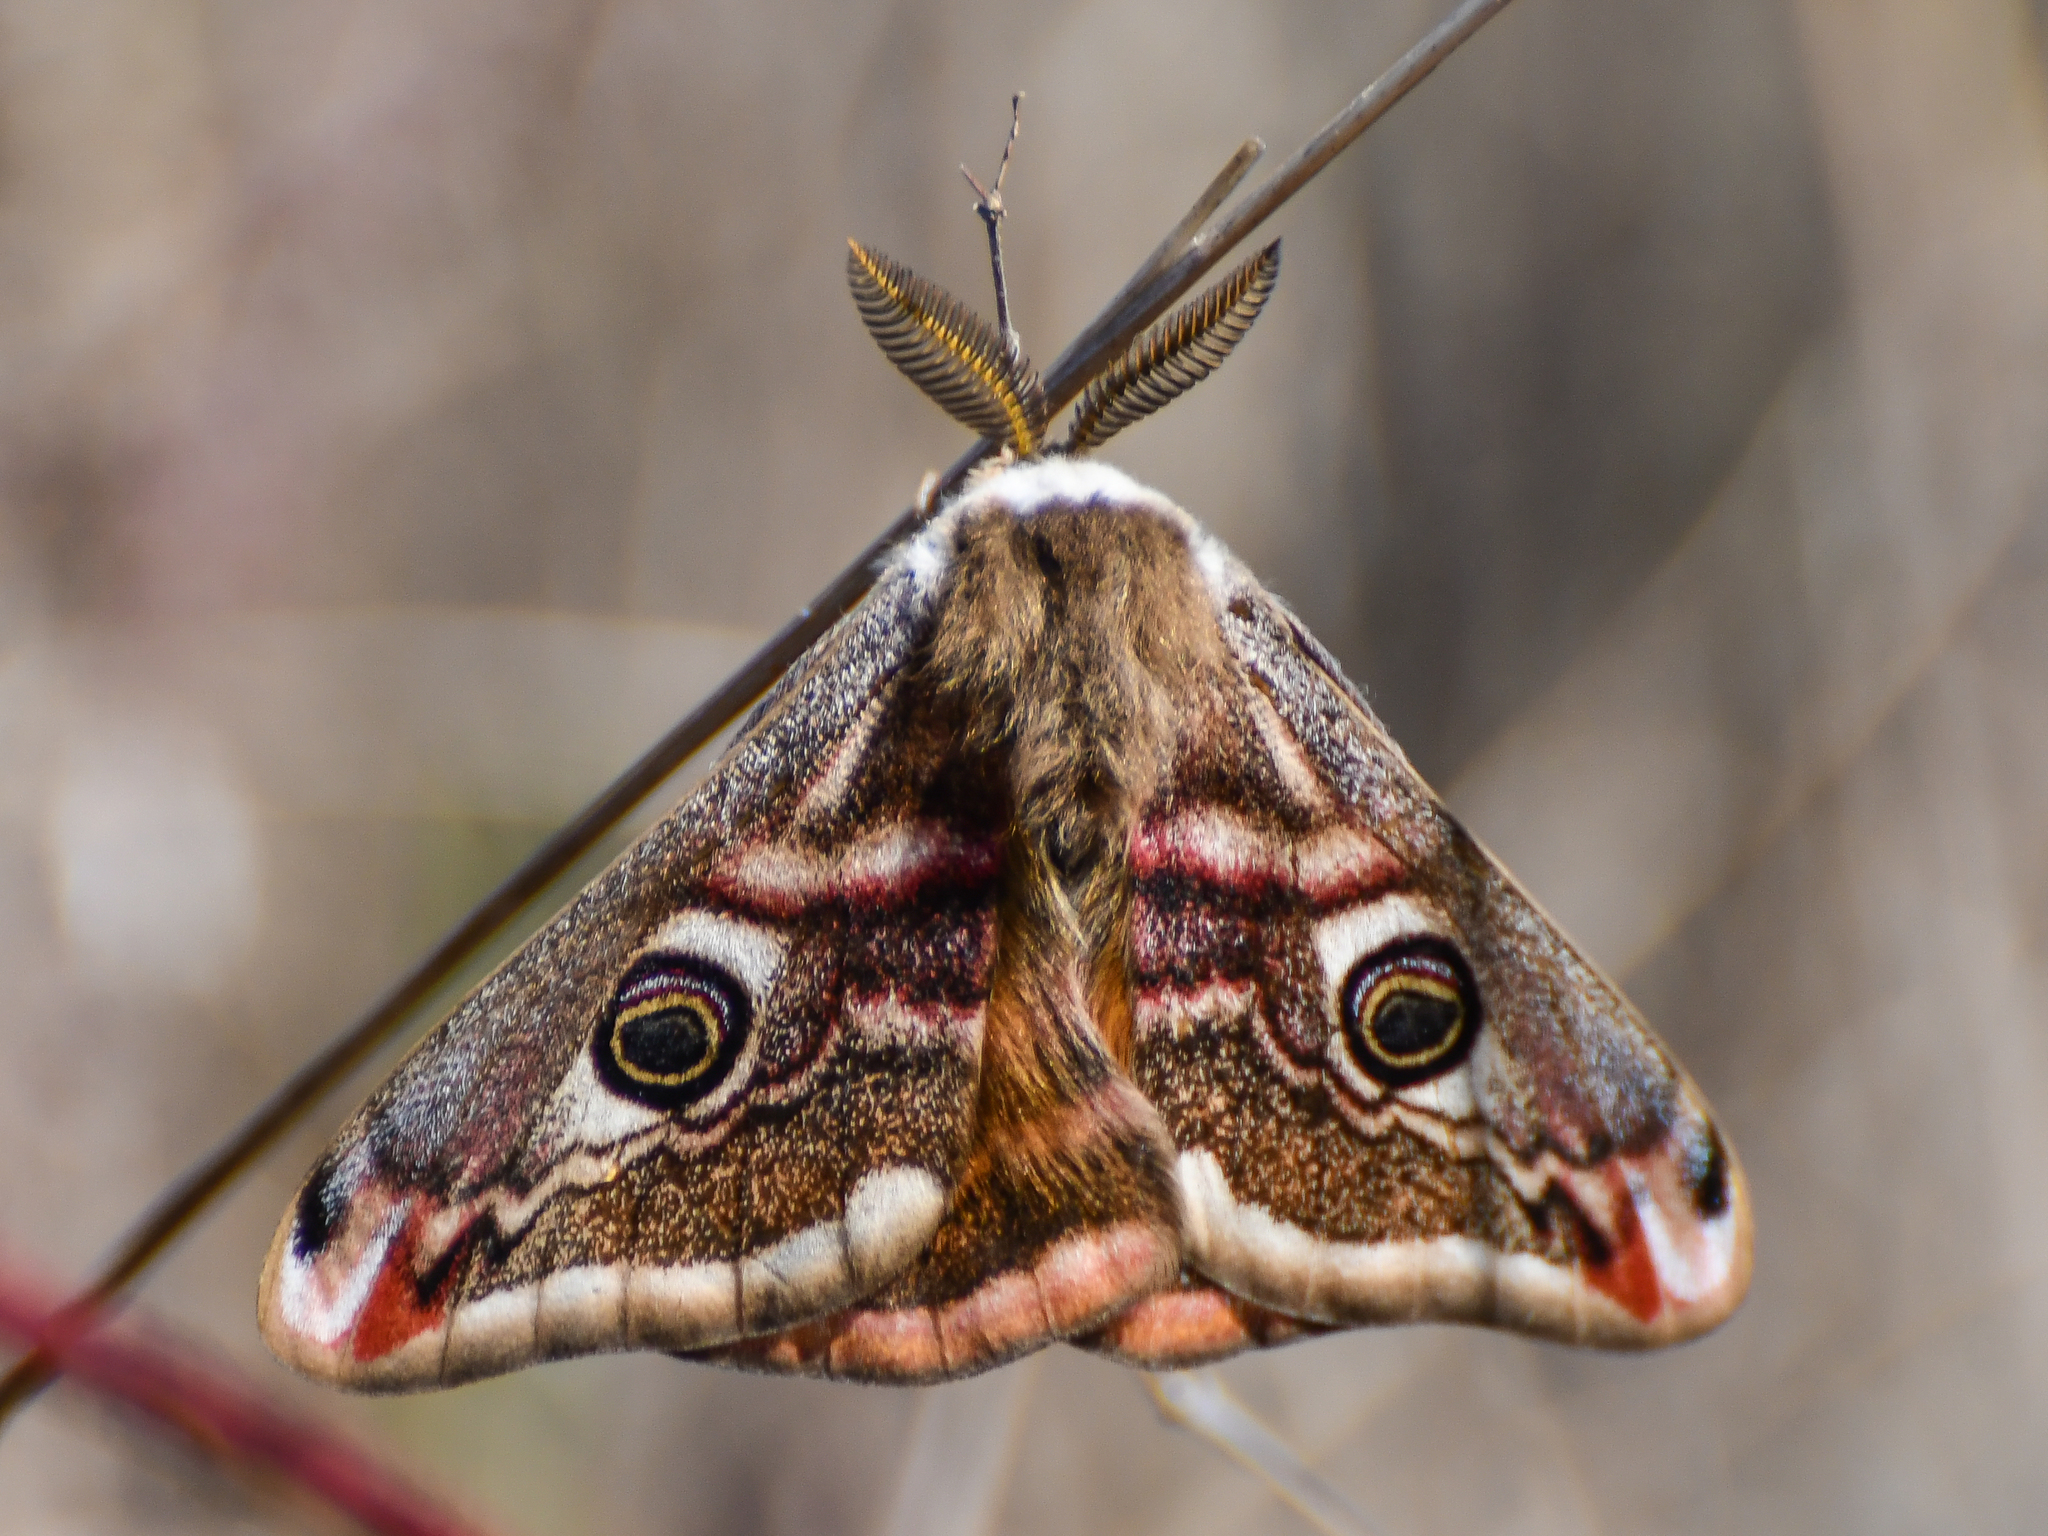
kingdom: Animalia
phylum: Arthropoda
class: Insecta
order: Lepidoptera
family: Saturniidae
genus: Saturnia
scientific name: Saturnia pavonia
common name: Emperor moth
